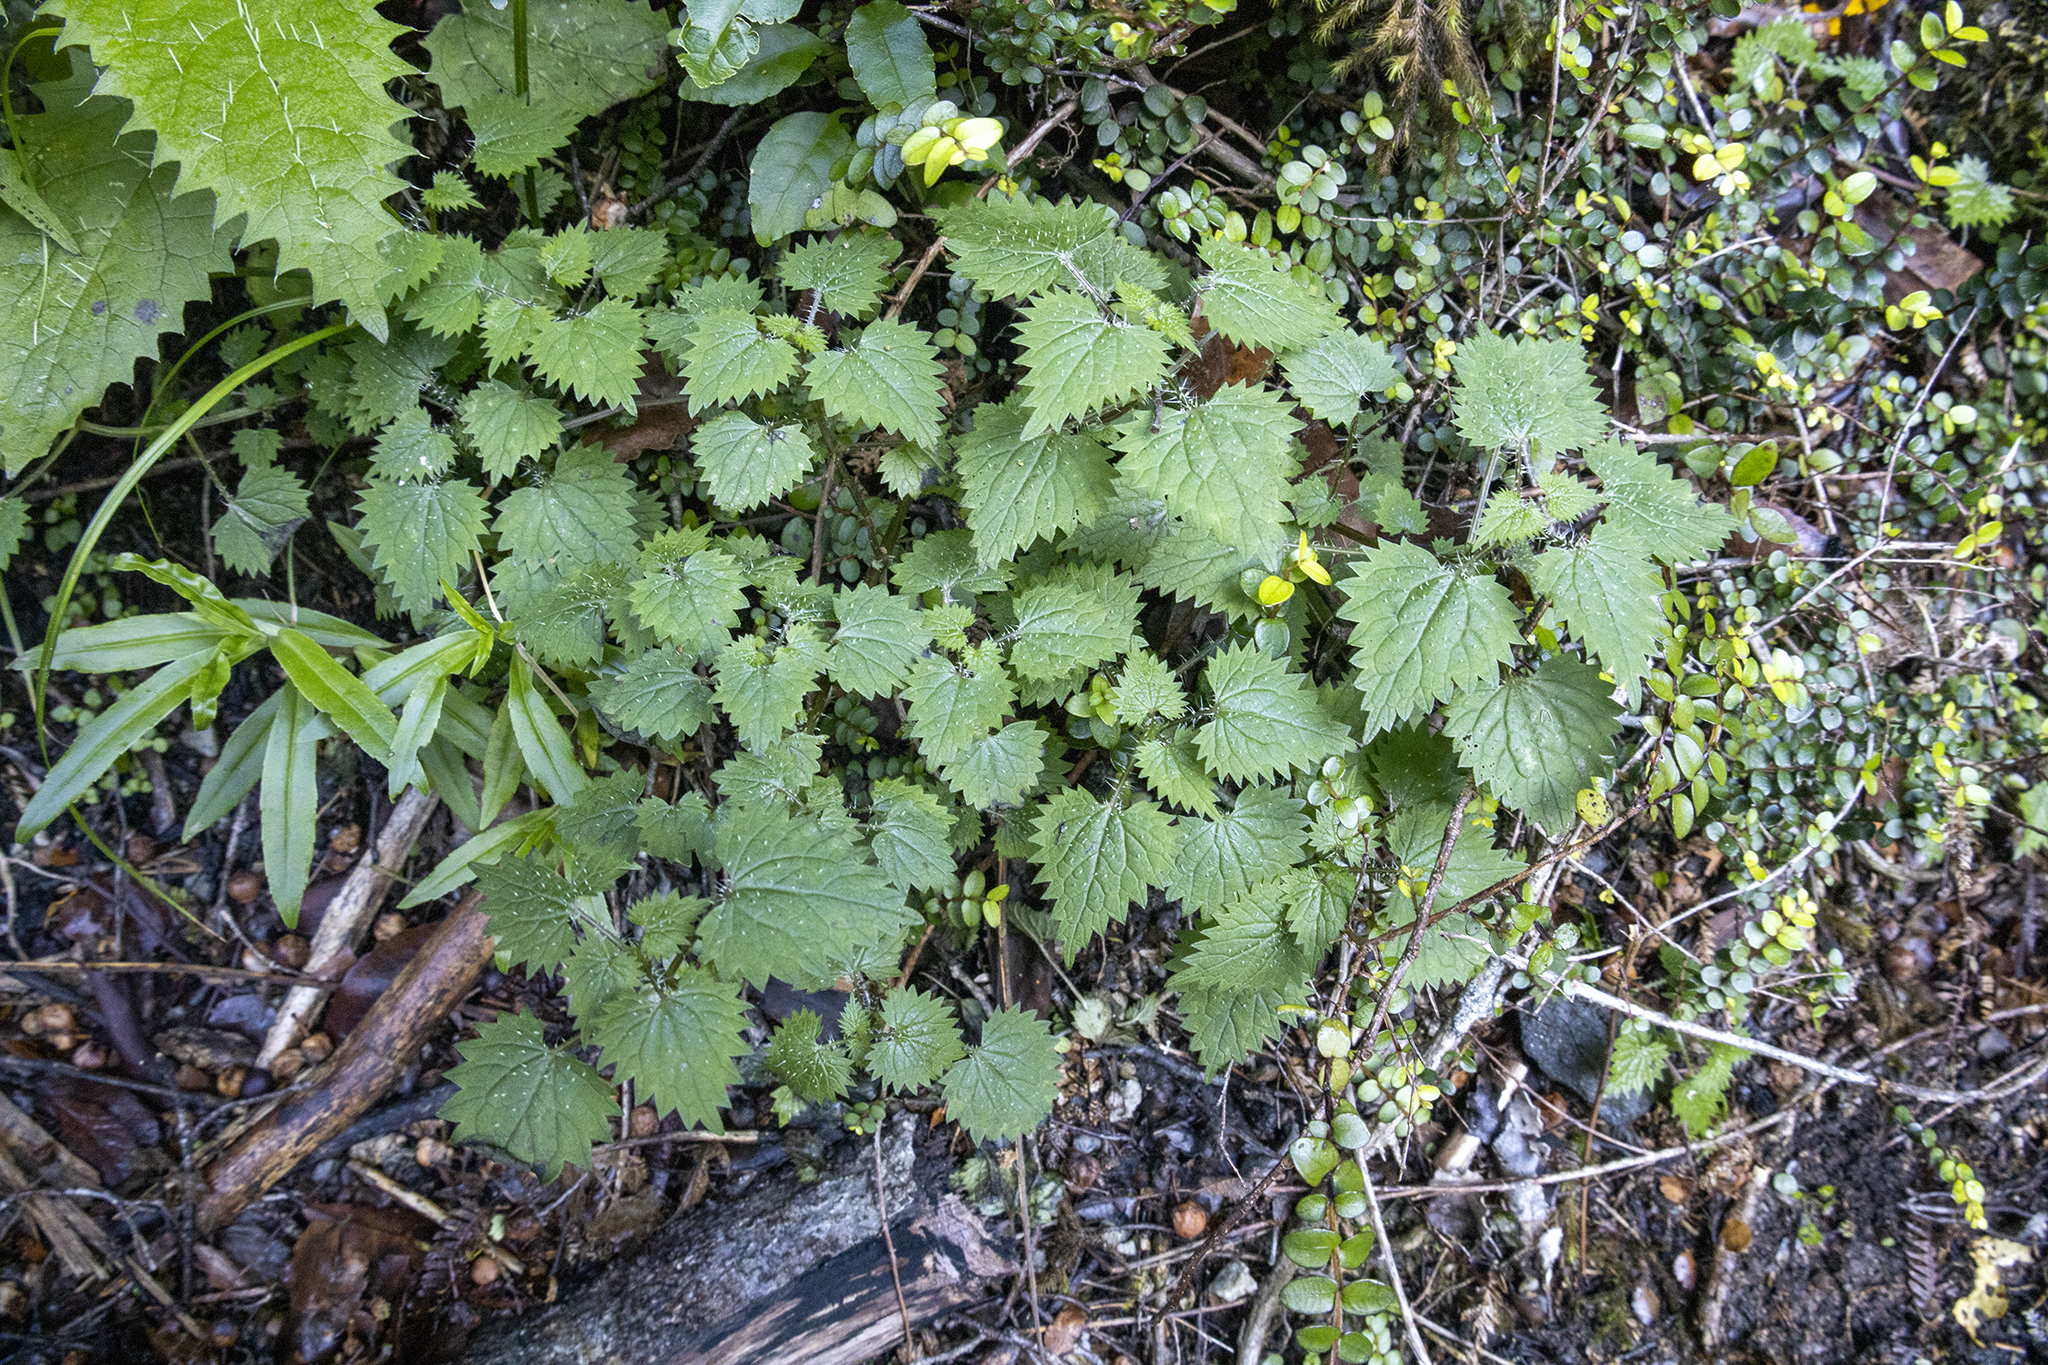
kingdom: Plantae
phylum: Tracheophyta
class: Magnoliopsida
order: Rosales
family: Urticaceae
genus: Urtica
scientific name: Urtica sykesii
